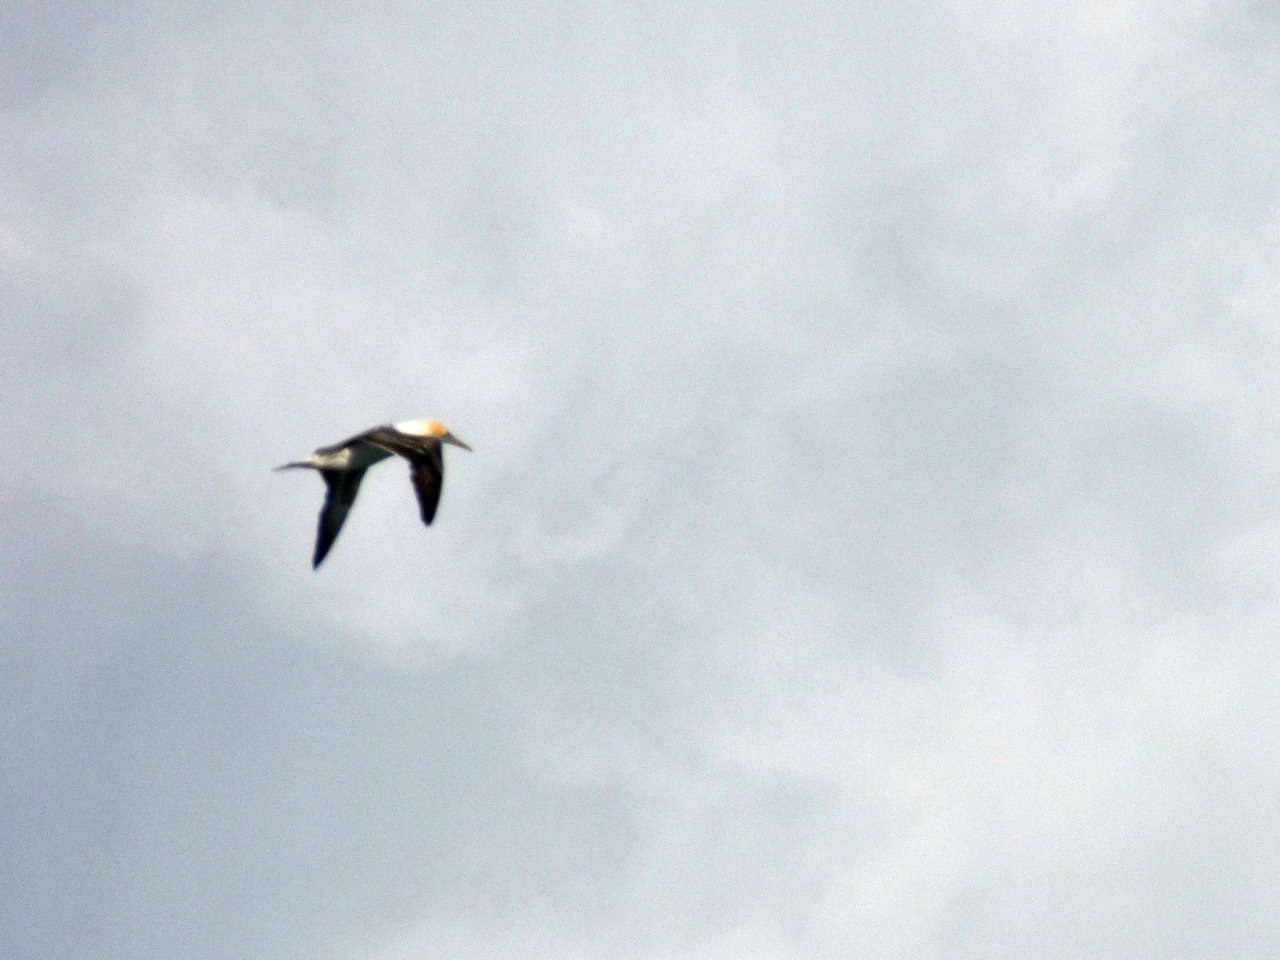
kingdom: Animalia
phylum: Chordata
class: Aves
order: Suliformes
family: Sulidae
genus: Morus
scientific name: Morus serrator
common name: Australasian gannet
